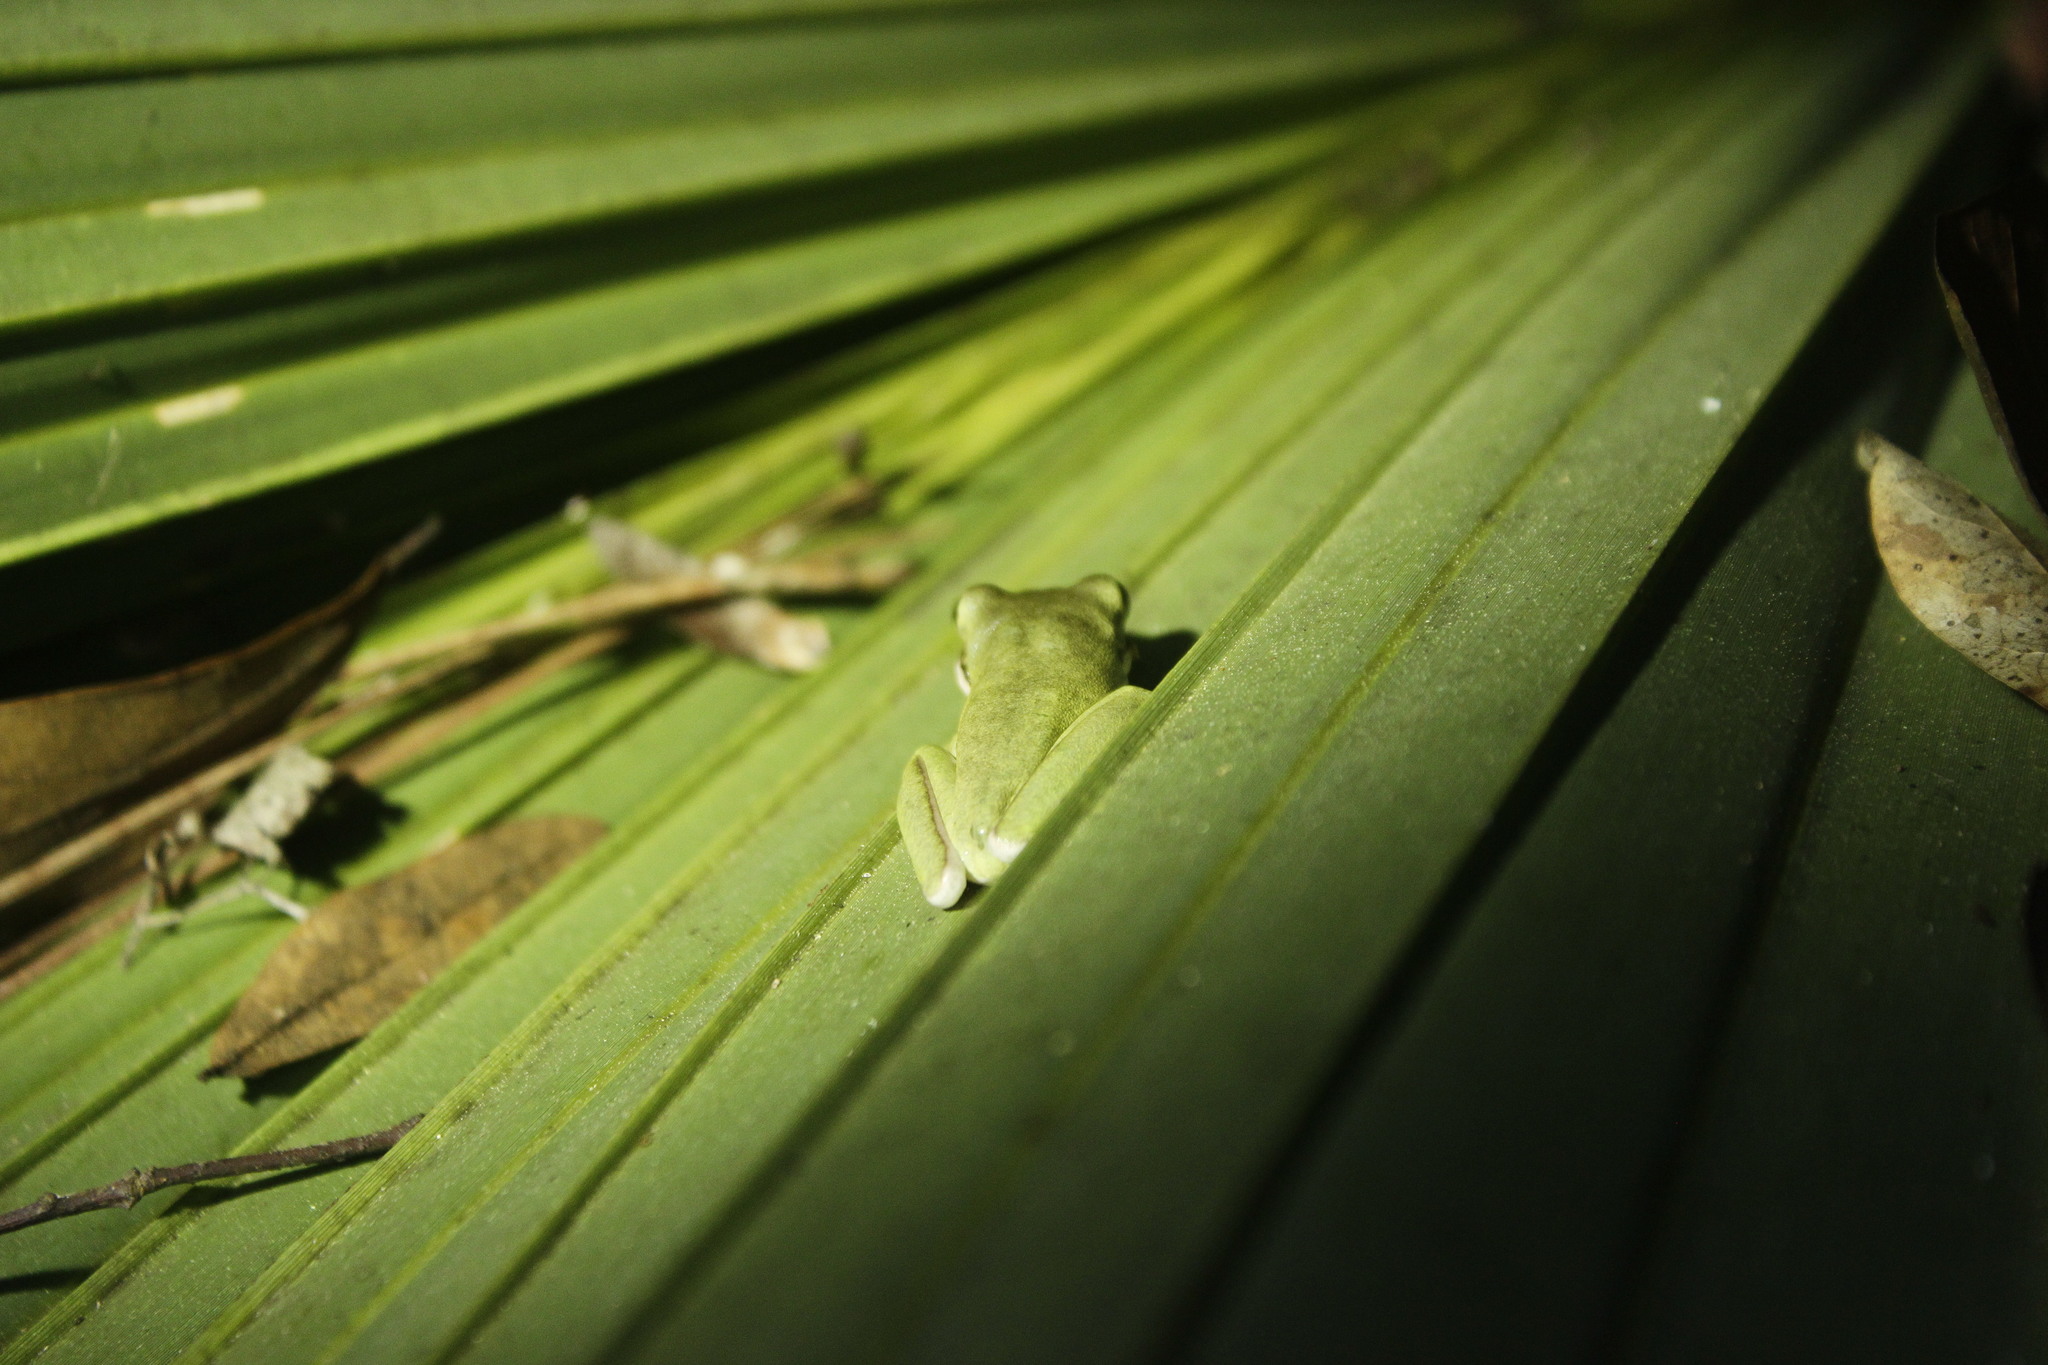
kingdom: Animalia
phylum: Chordata
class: Amphibia
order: Anura
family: Hylidae
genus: Dryophytes
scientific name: Dryophytes cinereus
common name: Green treefrog
